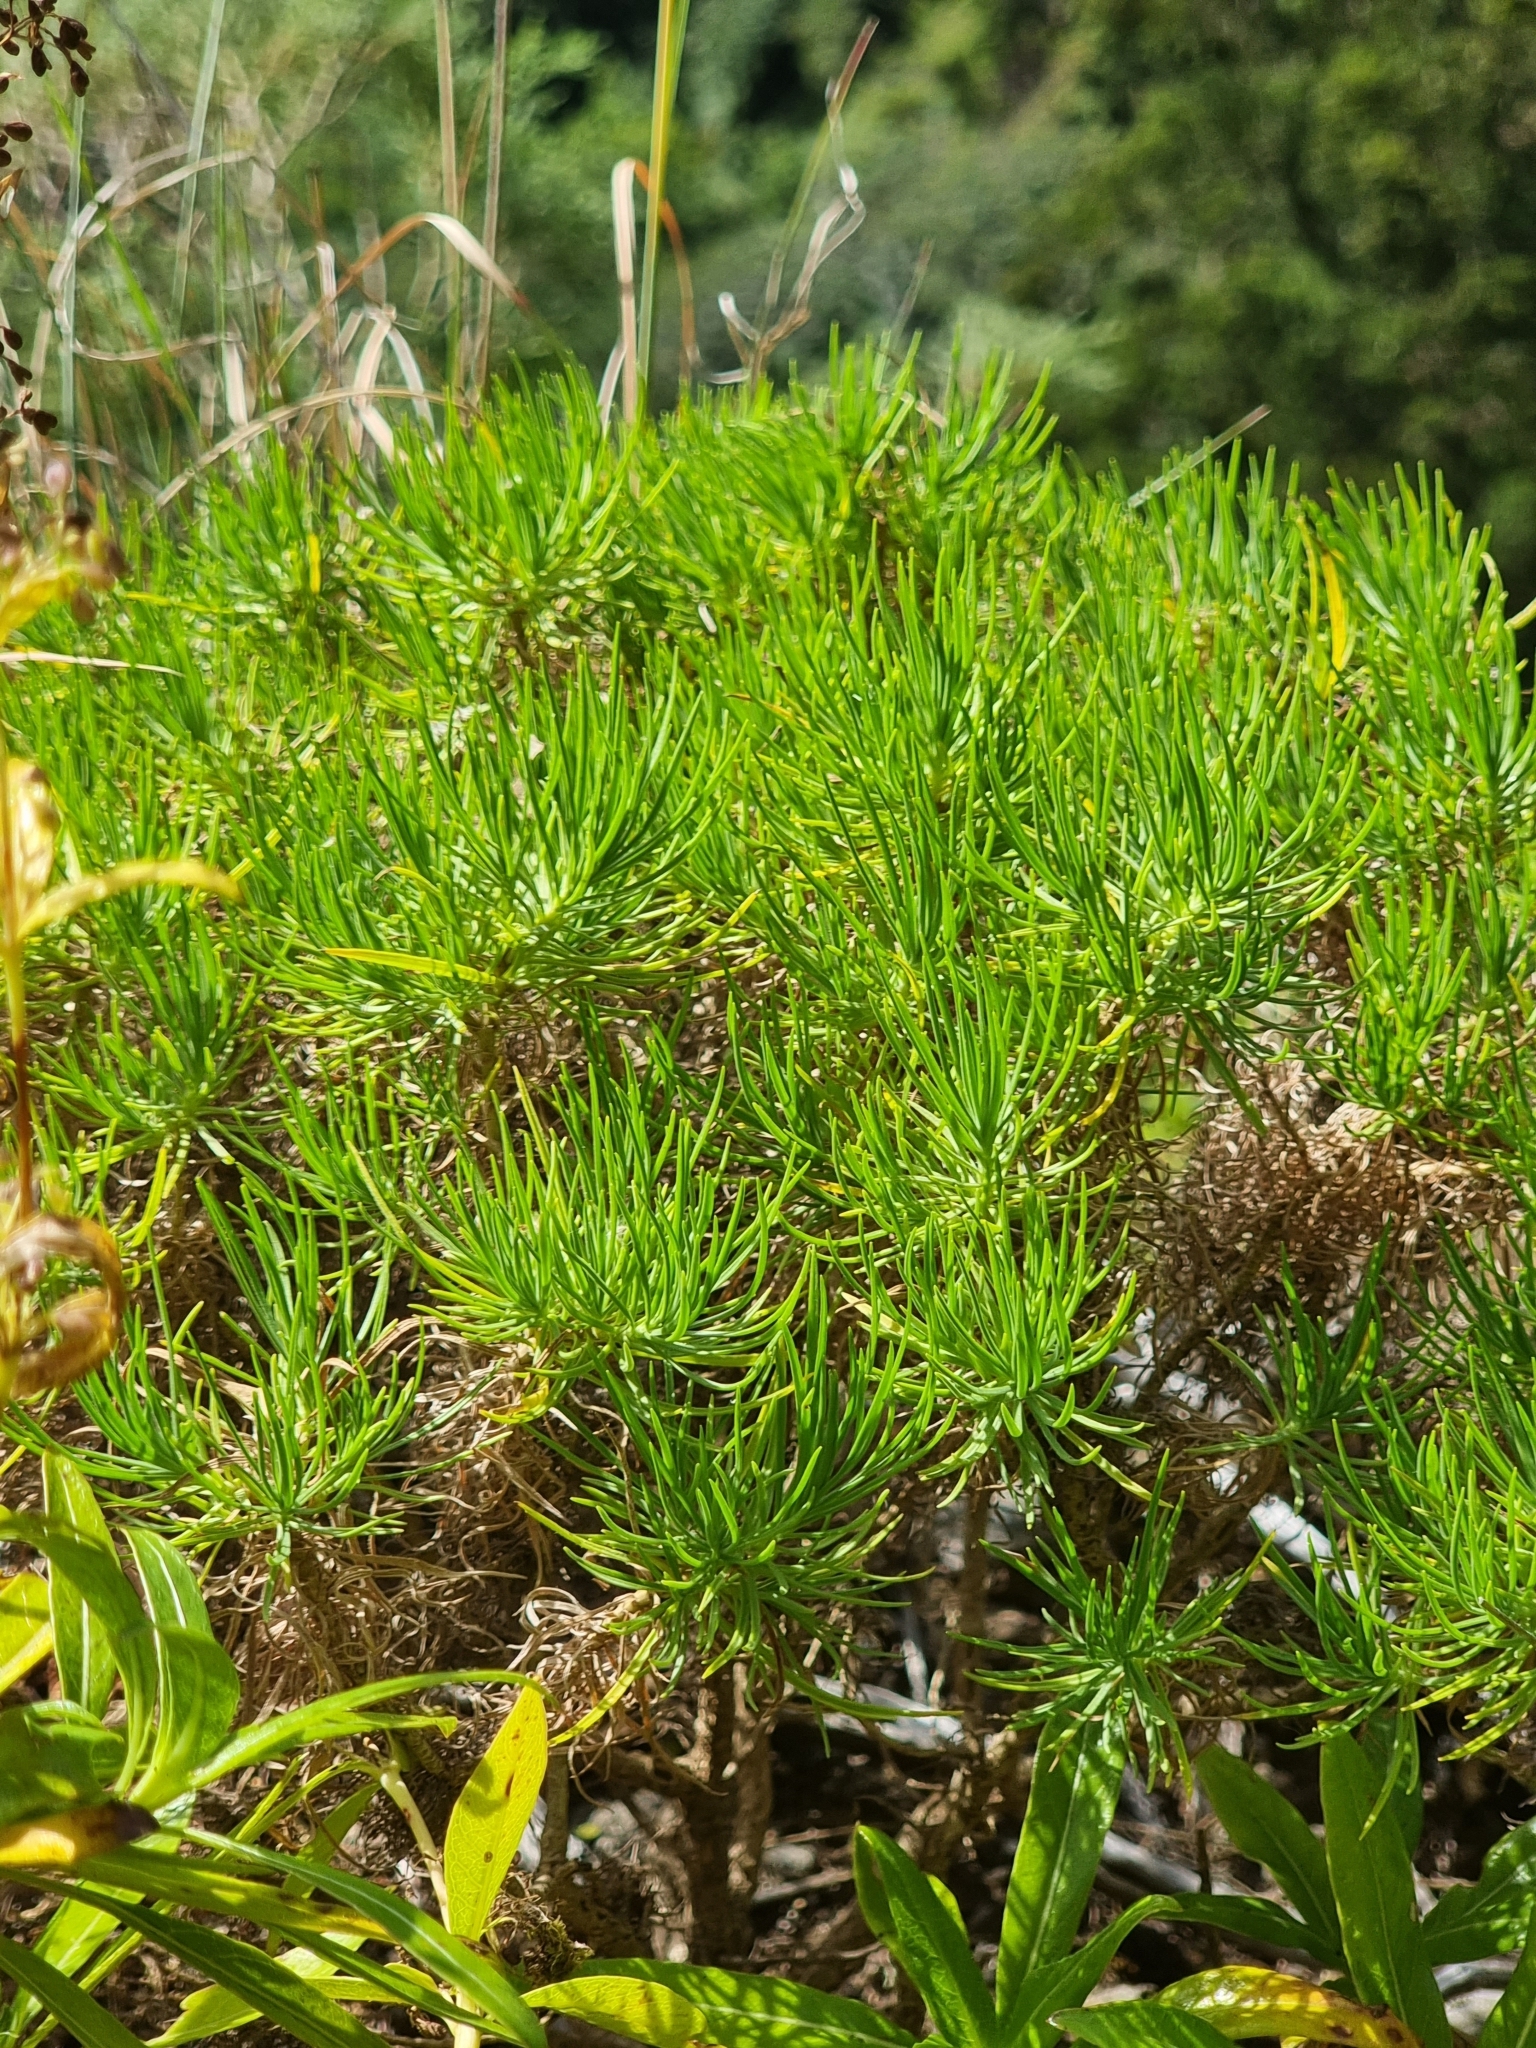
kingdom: Plantae
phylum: Tracheophyta
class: Magnoliopsida
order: Lamiales
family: Plantaginaceae
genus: Plantago
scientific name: Plantago arborescens
